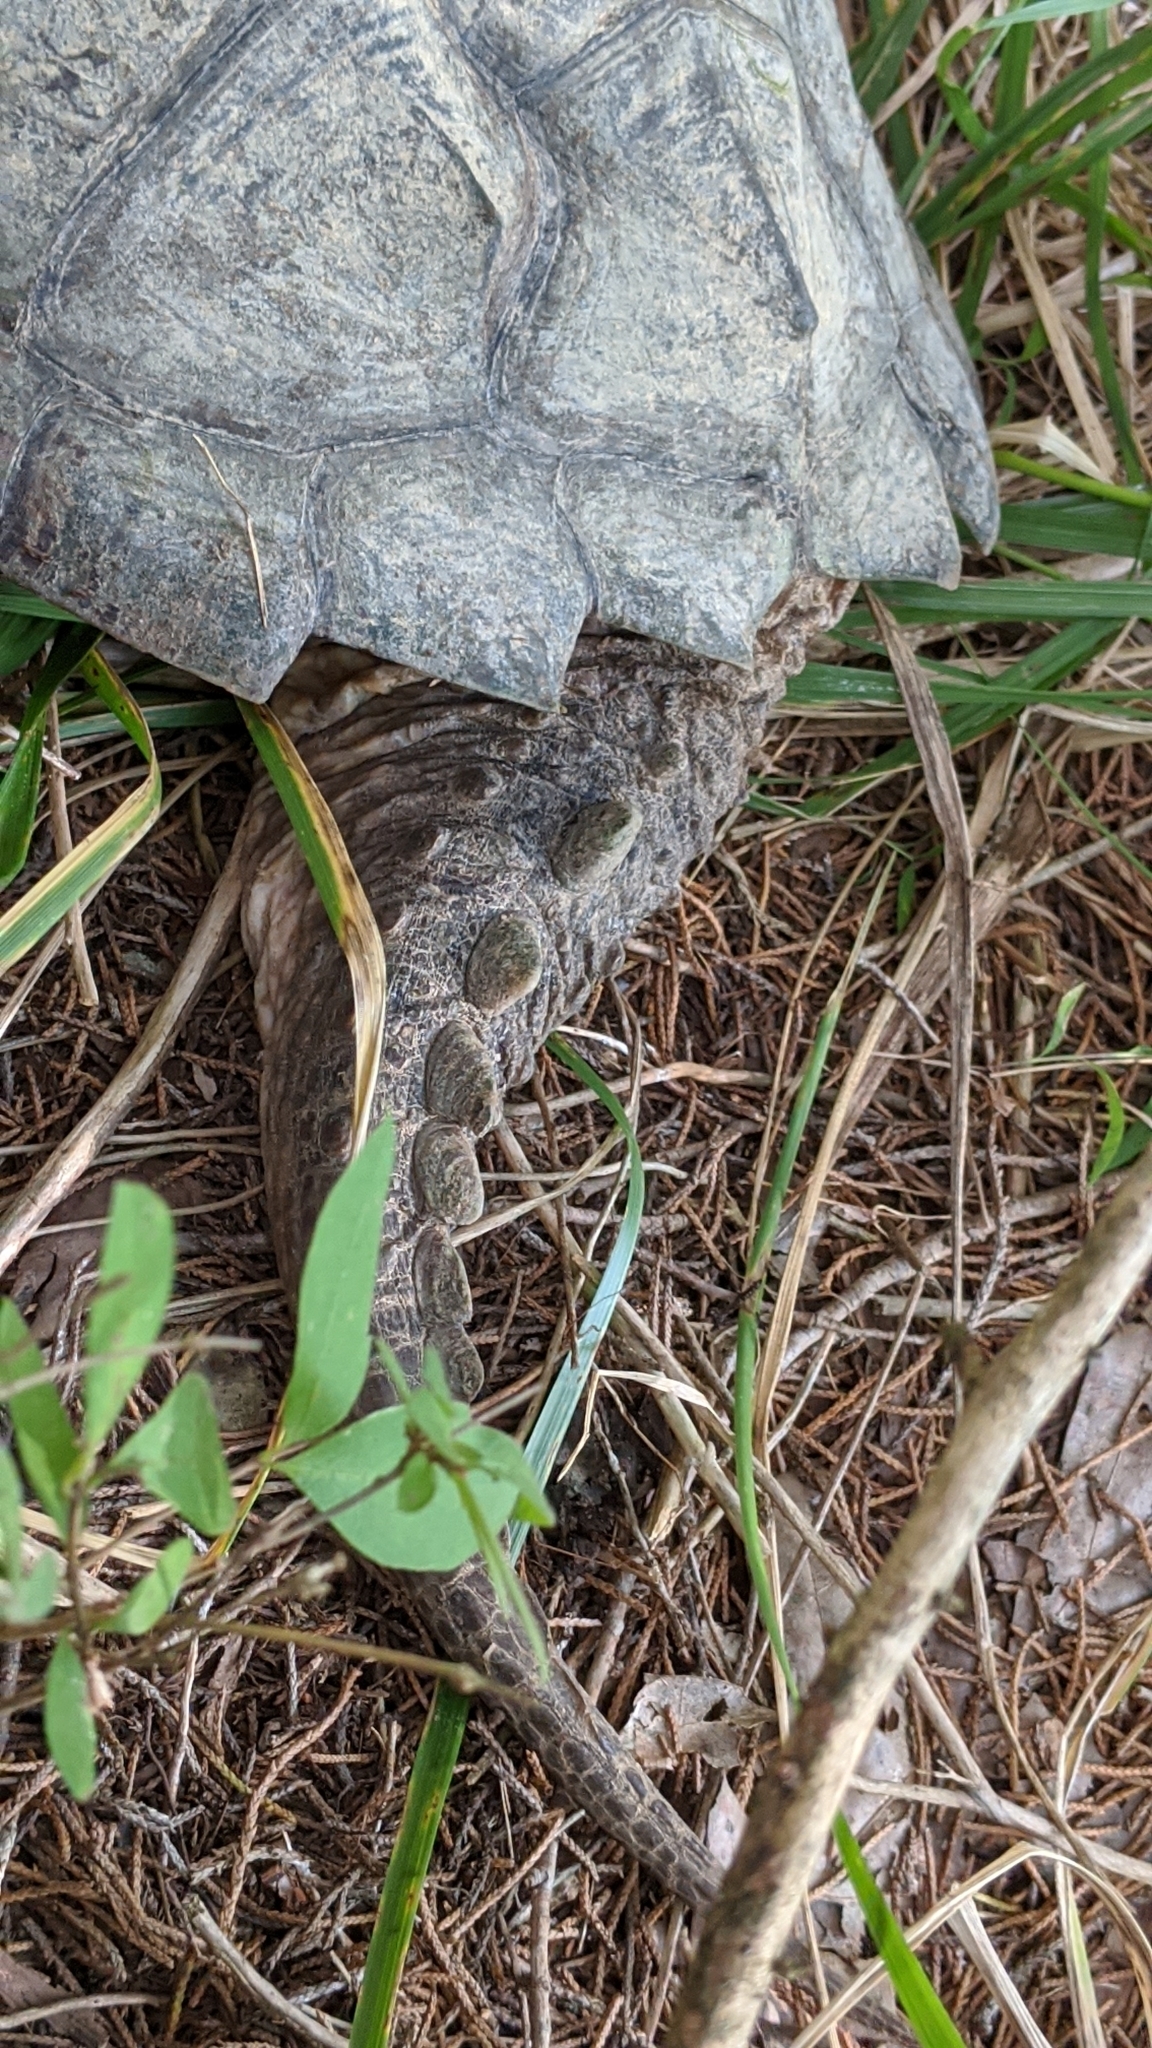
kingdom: Animalia
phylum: Chordata
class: Testudines
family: Chelydridae
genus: Chelydra
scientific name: Chelydra serpentina
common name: Common snapping turtle
